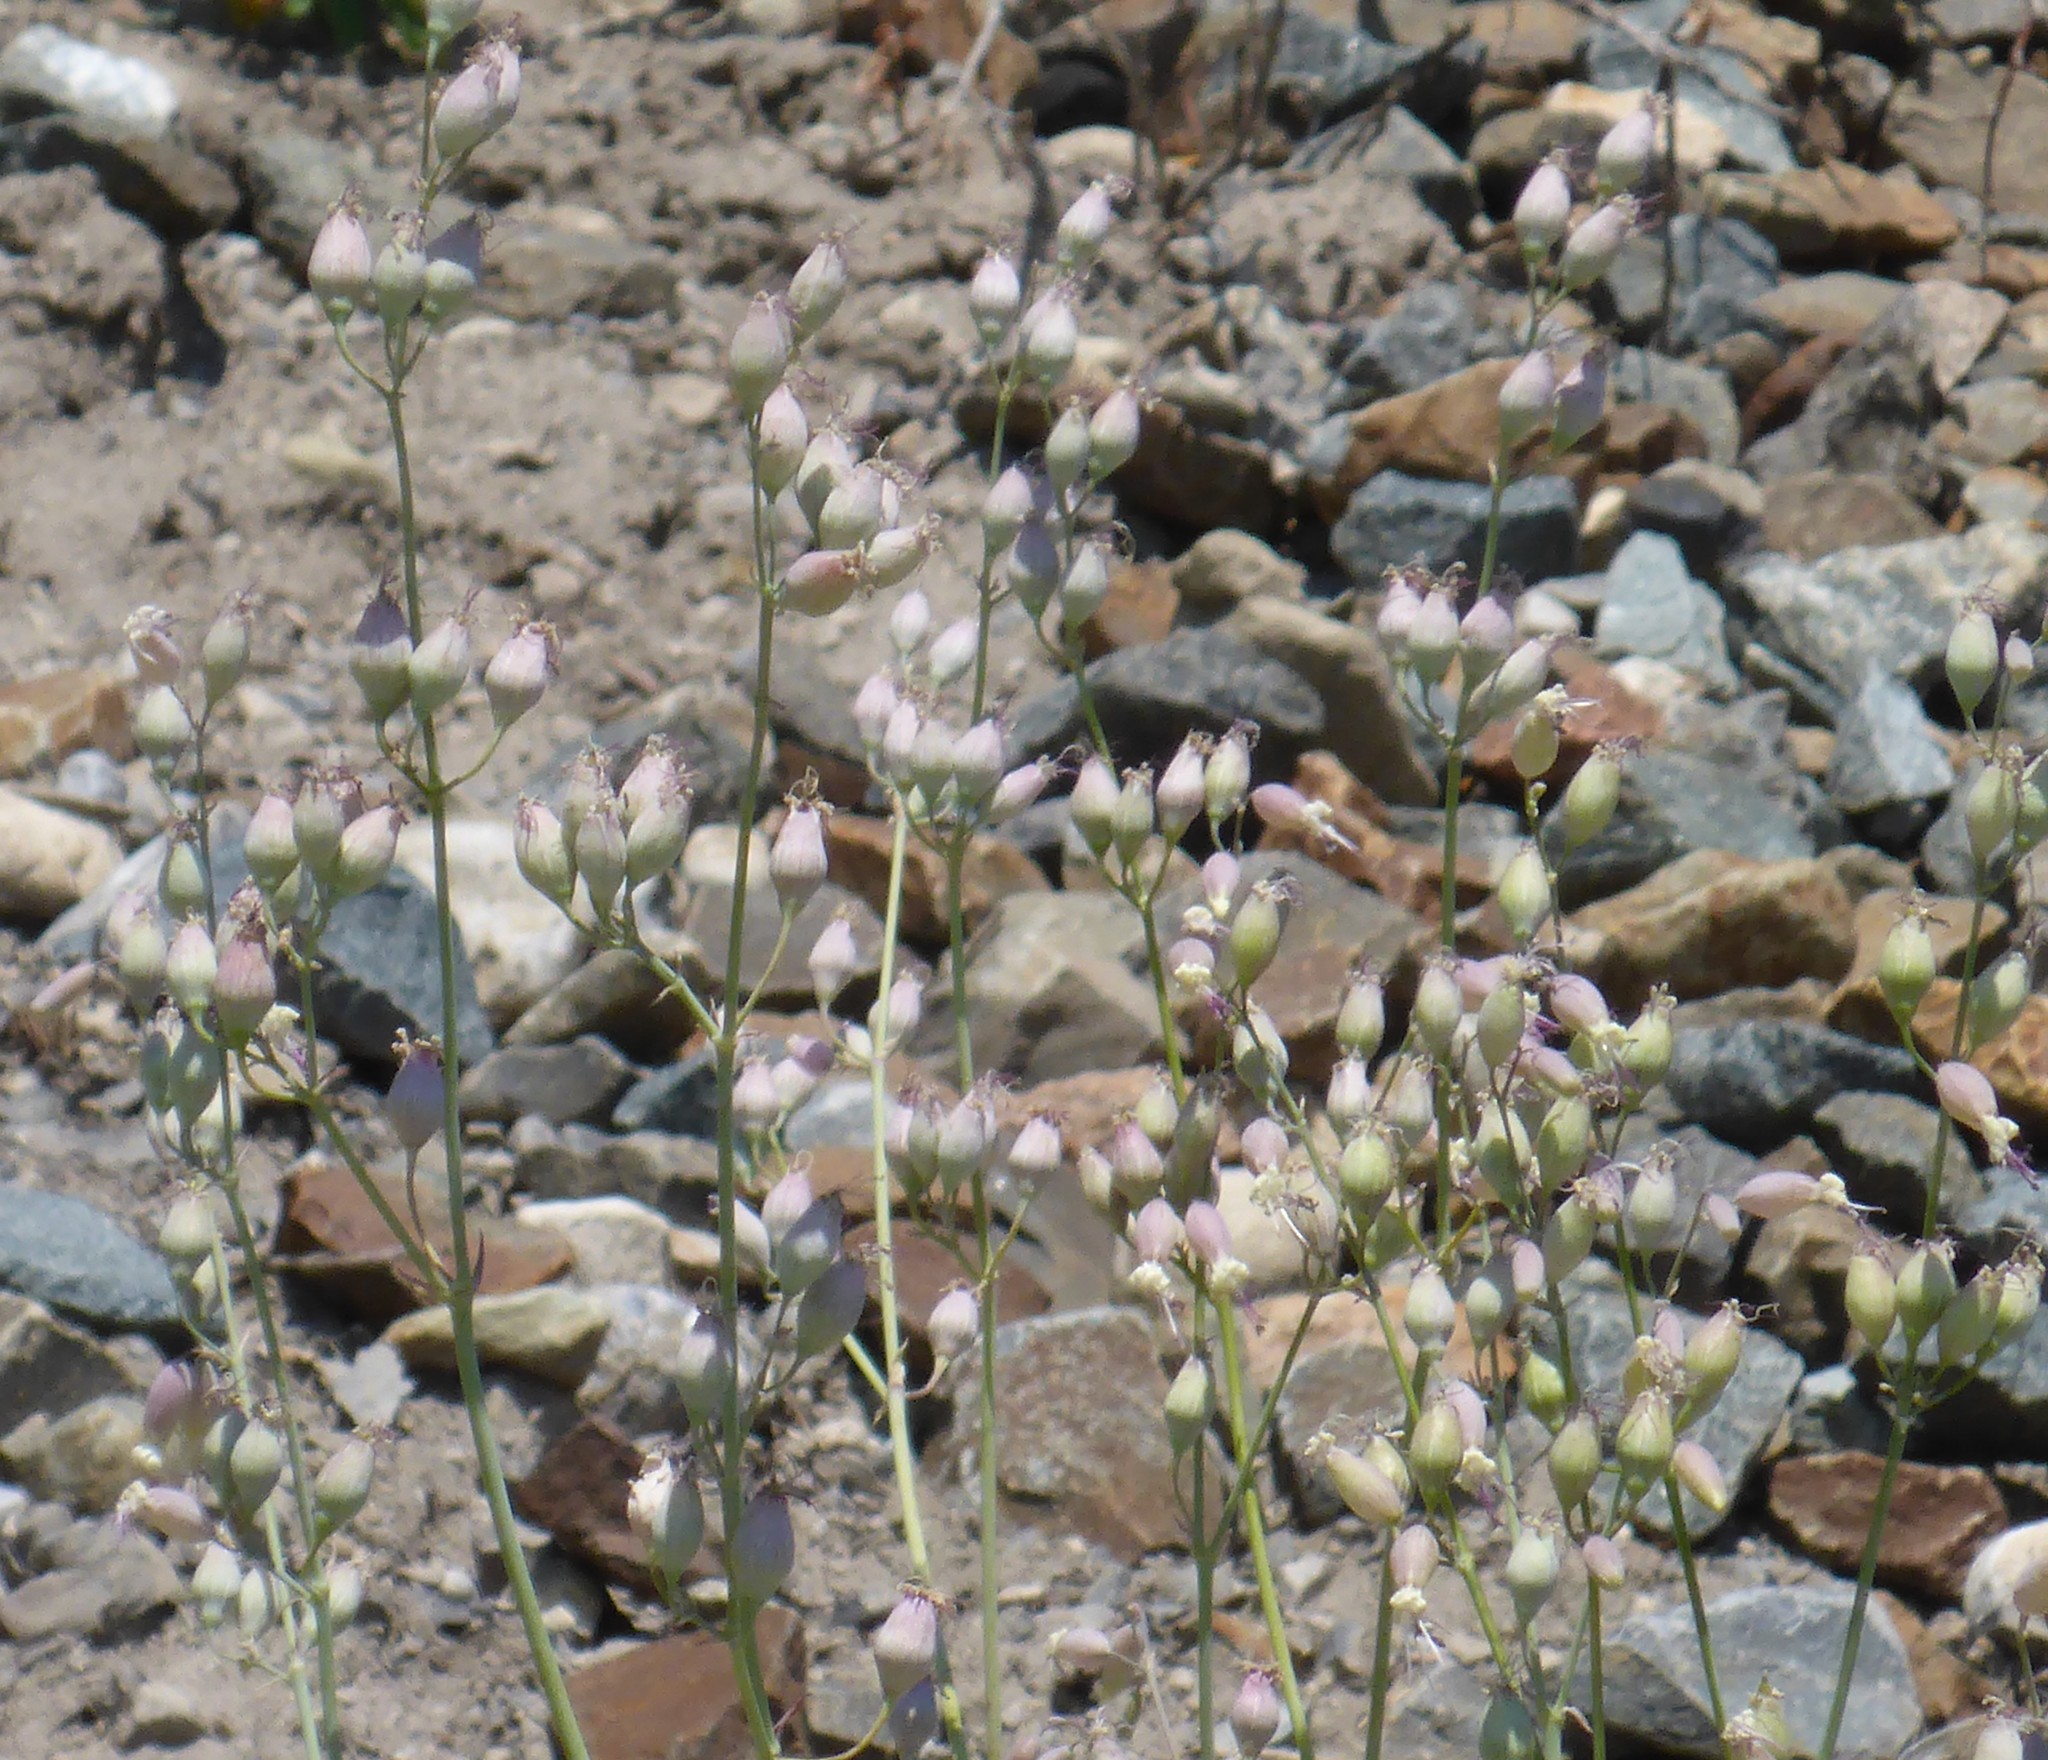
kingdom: Plantae
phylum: Tracheophyta
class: Magnoliopsida
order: Caryophyllales
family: Caryophyllaceae
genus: Silene
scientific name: Silene csereii
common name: Balkan catchfly
